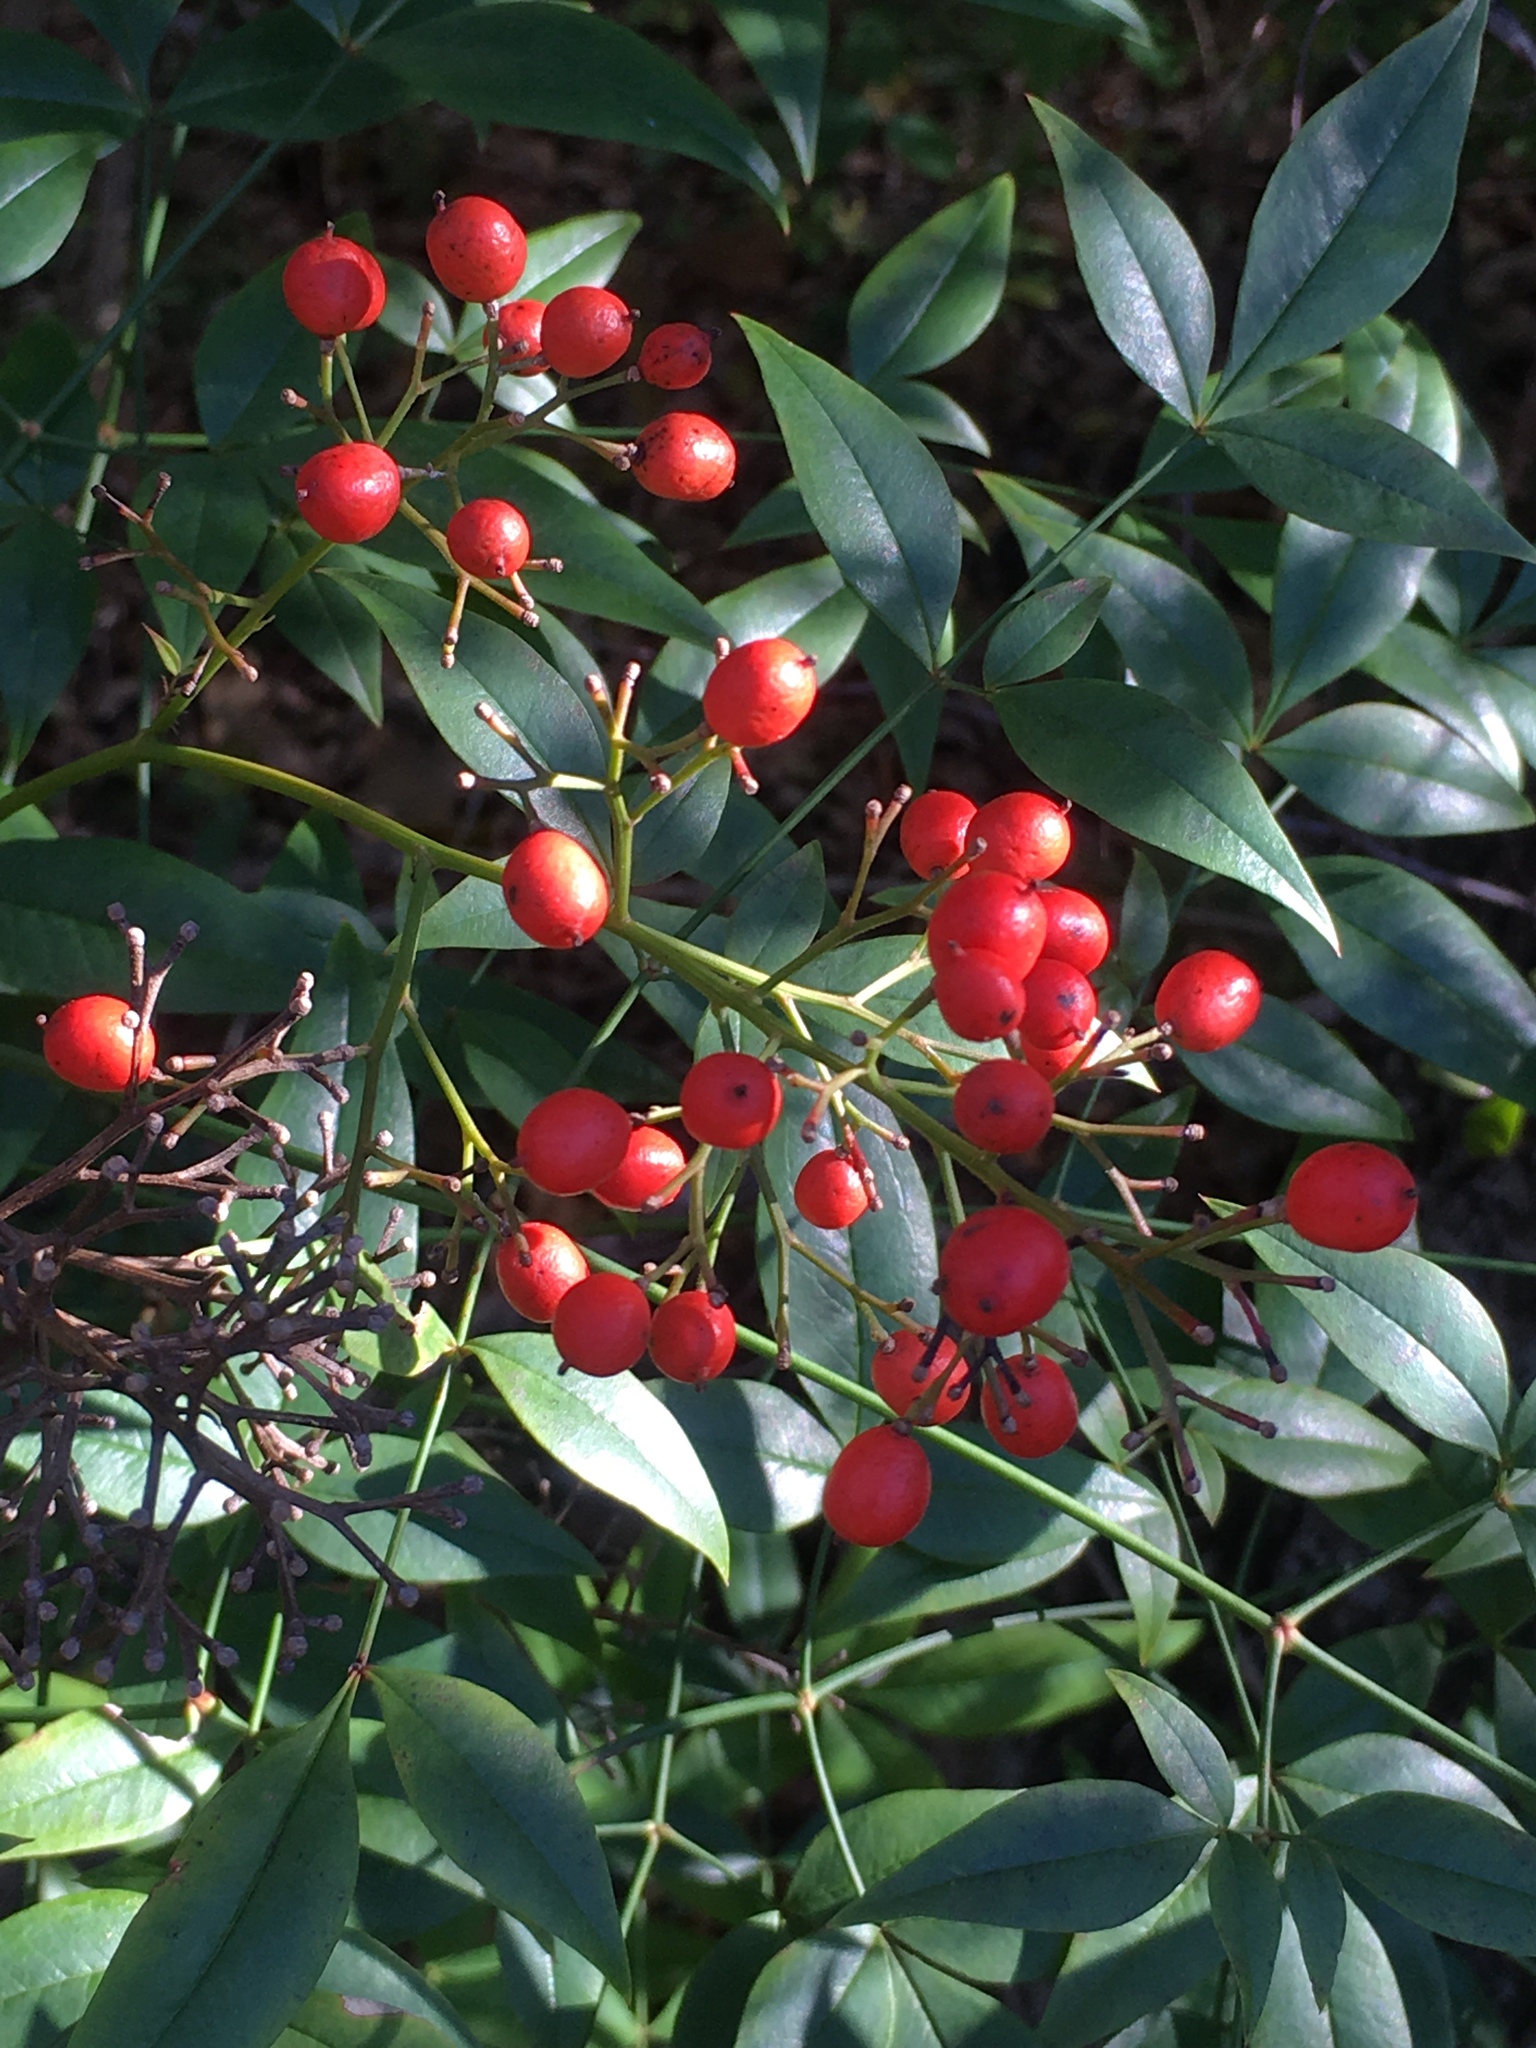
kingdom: Plantae
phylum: Tracheophyta
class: Magnoliopsida
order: Ranunculales
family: Berberidaceae
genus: Nandina
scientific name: Nandina domestica
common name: Sacred bamboo
